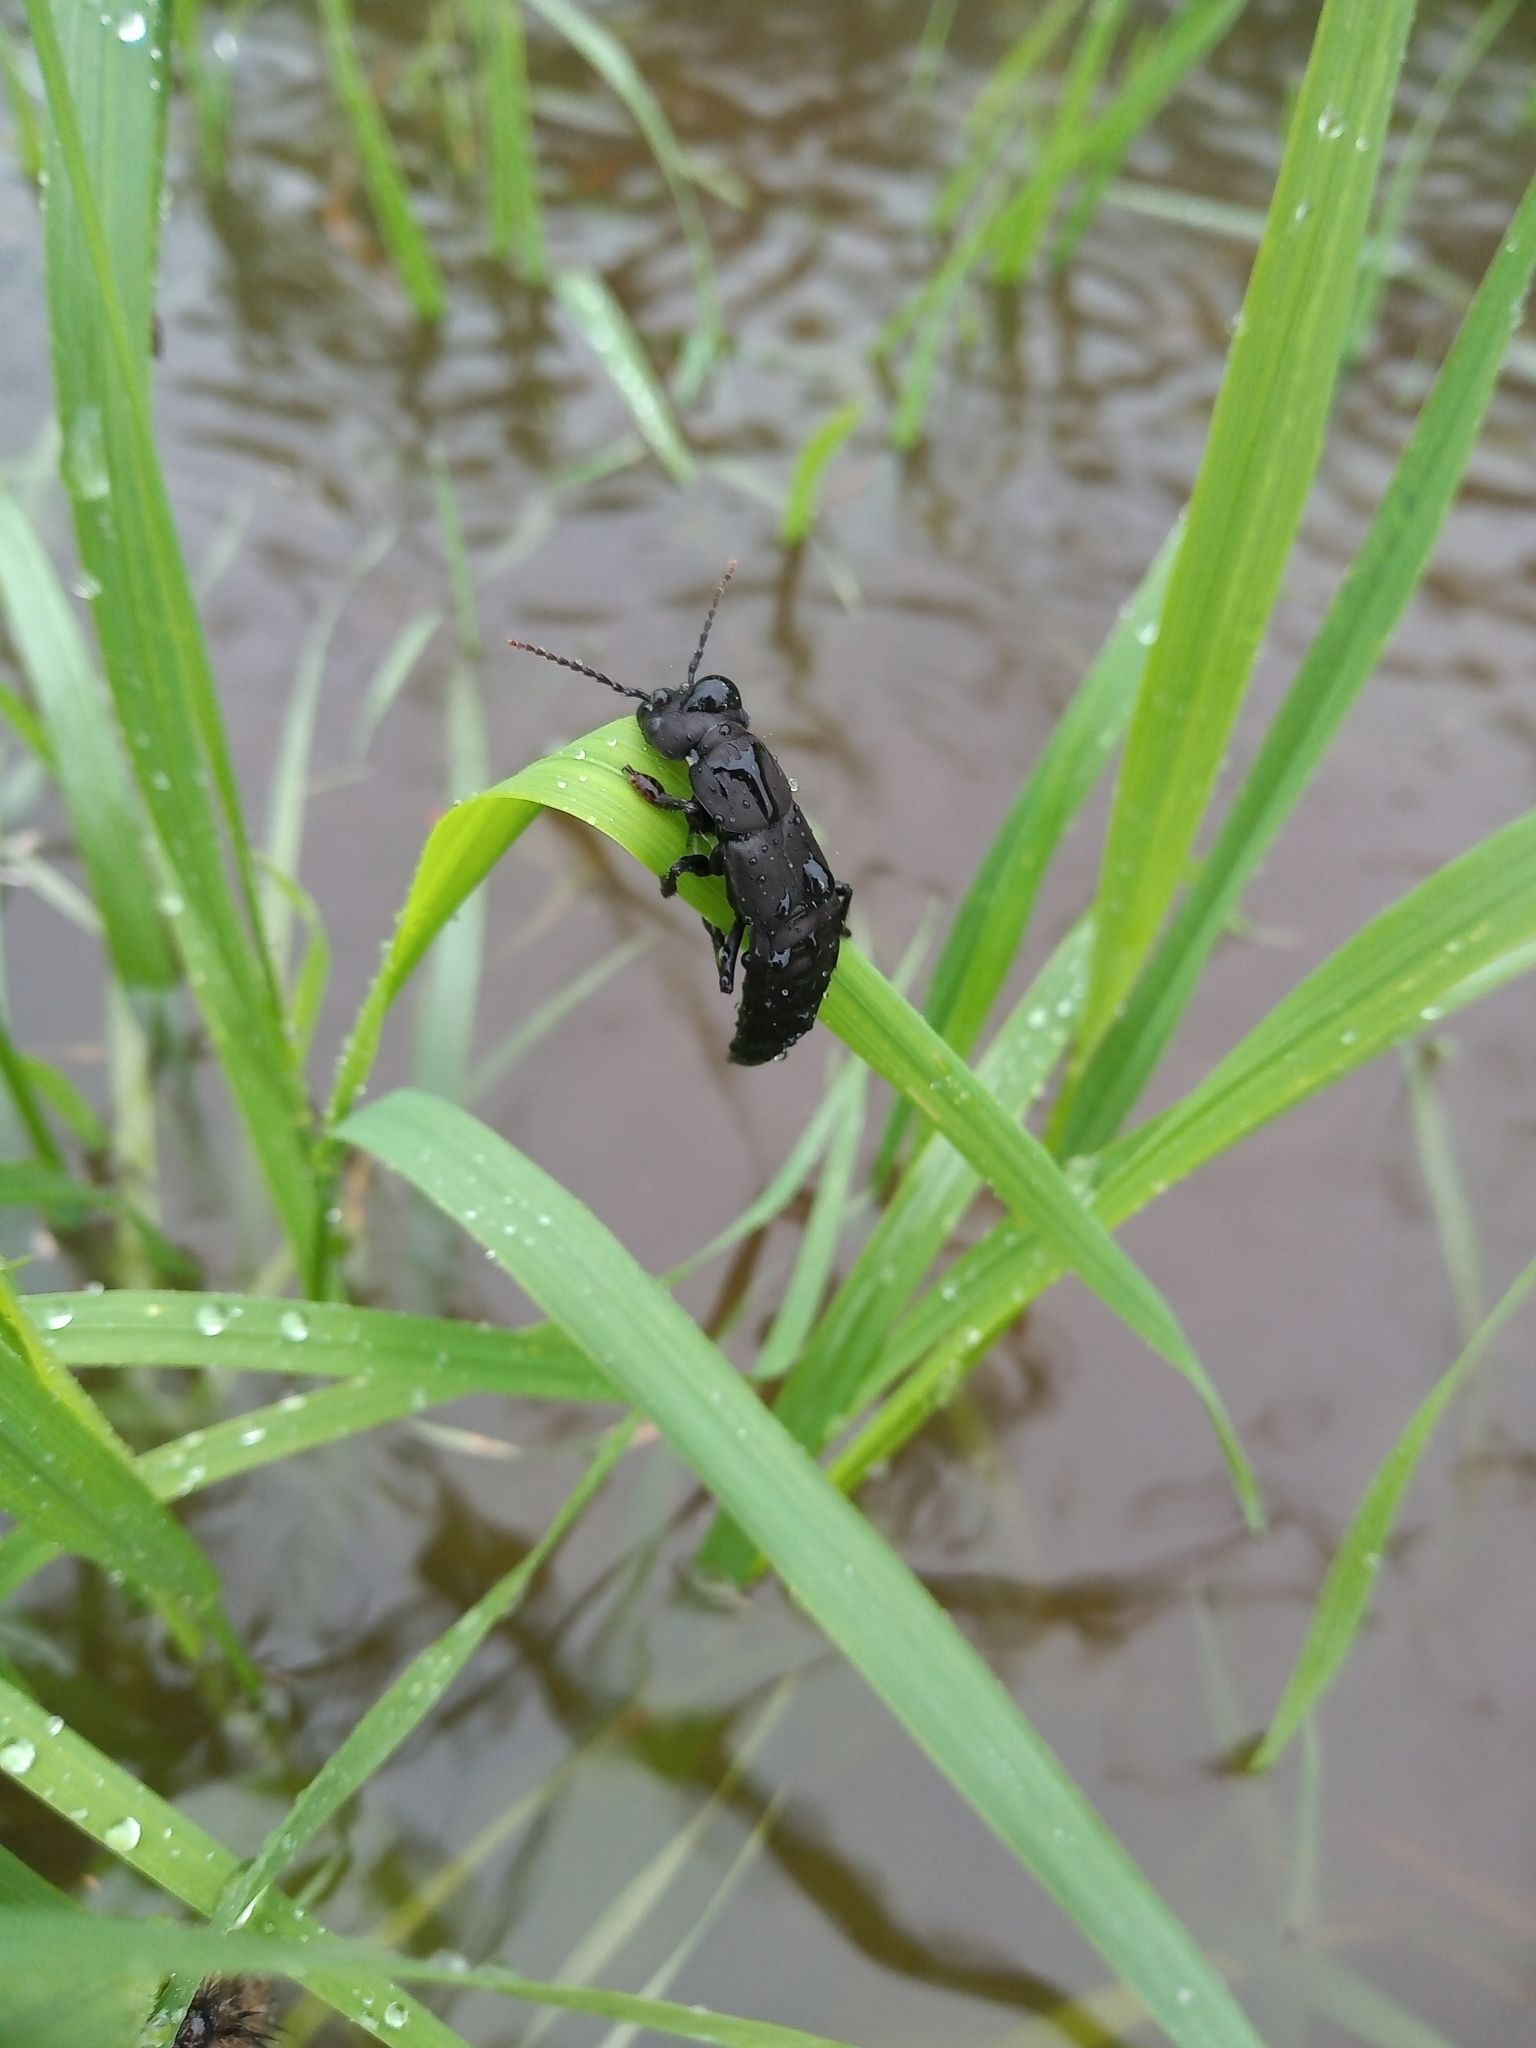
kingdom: Animalia
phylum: Arthropoda
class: Insecta
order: Coleoptera
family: Staphylinidae
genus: Ocypus
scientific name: Ocypus olens
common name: Devil's coach-horse
